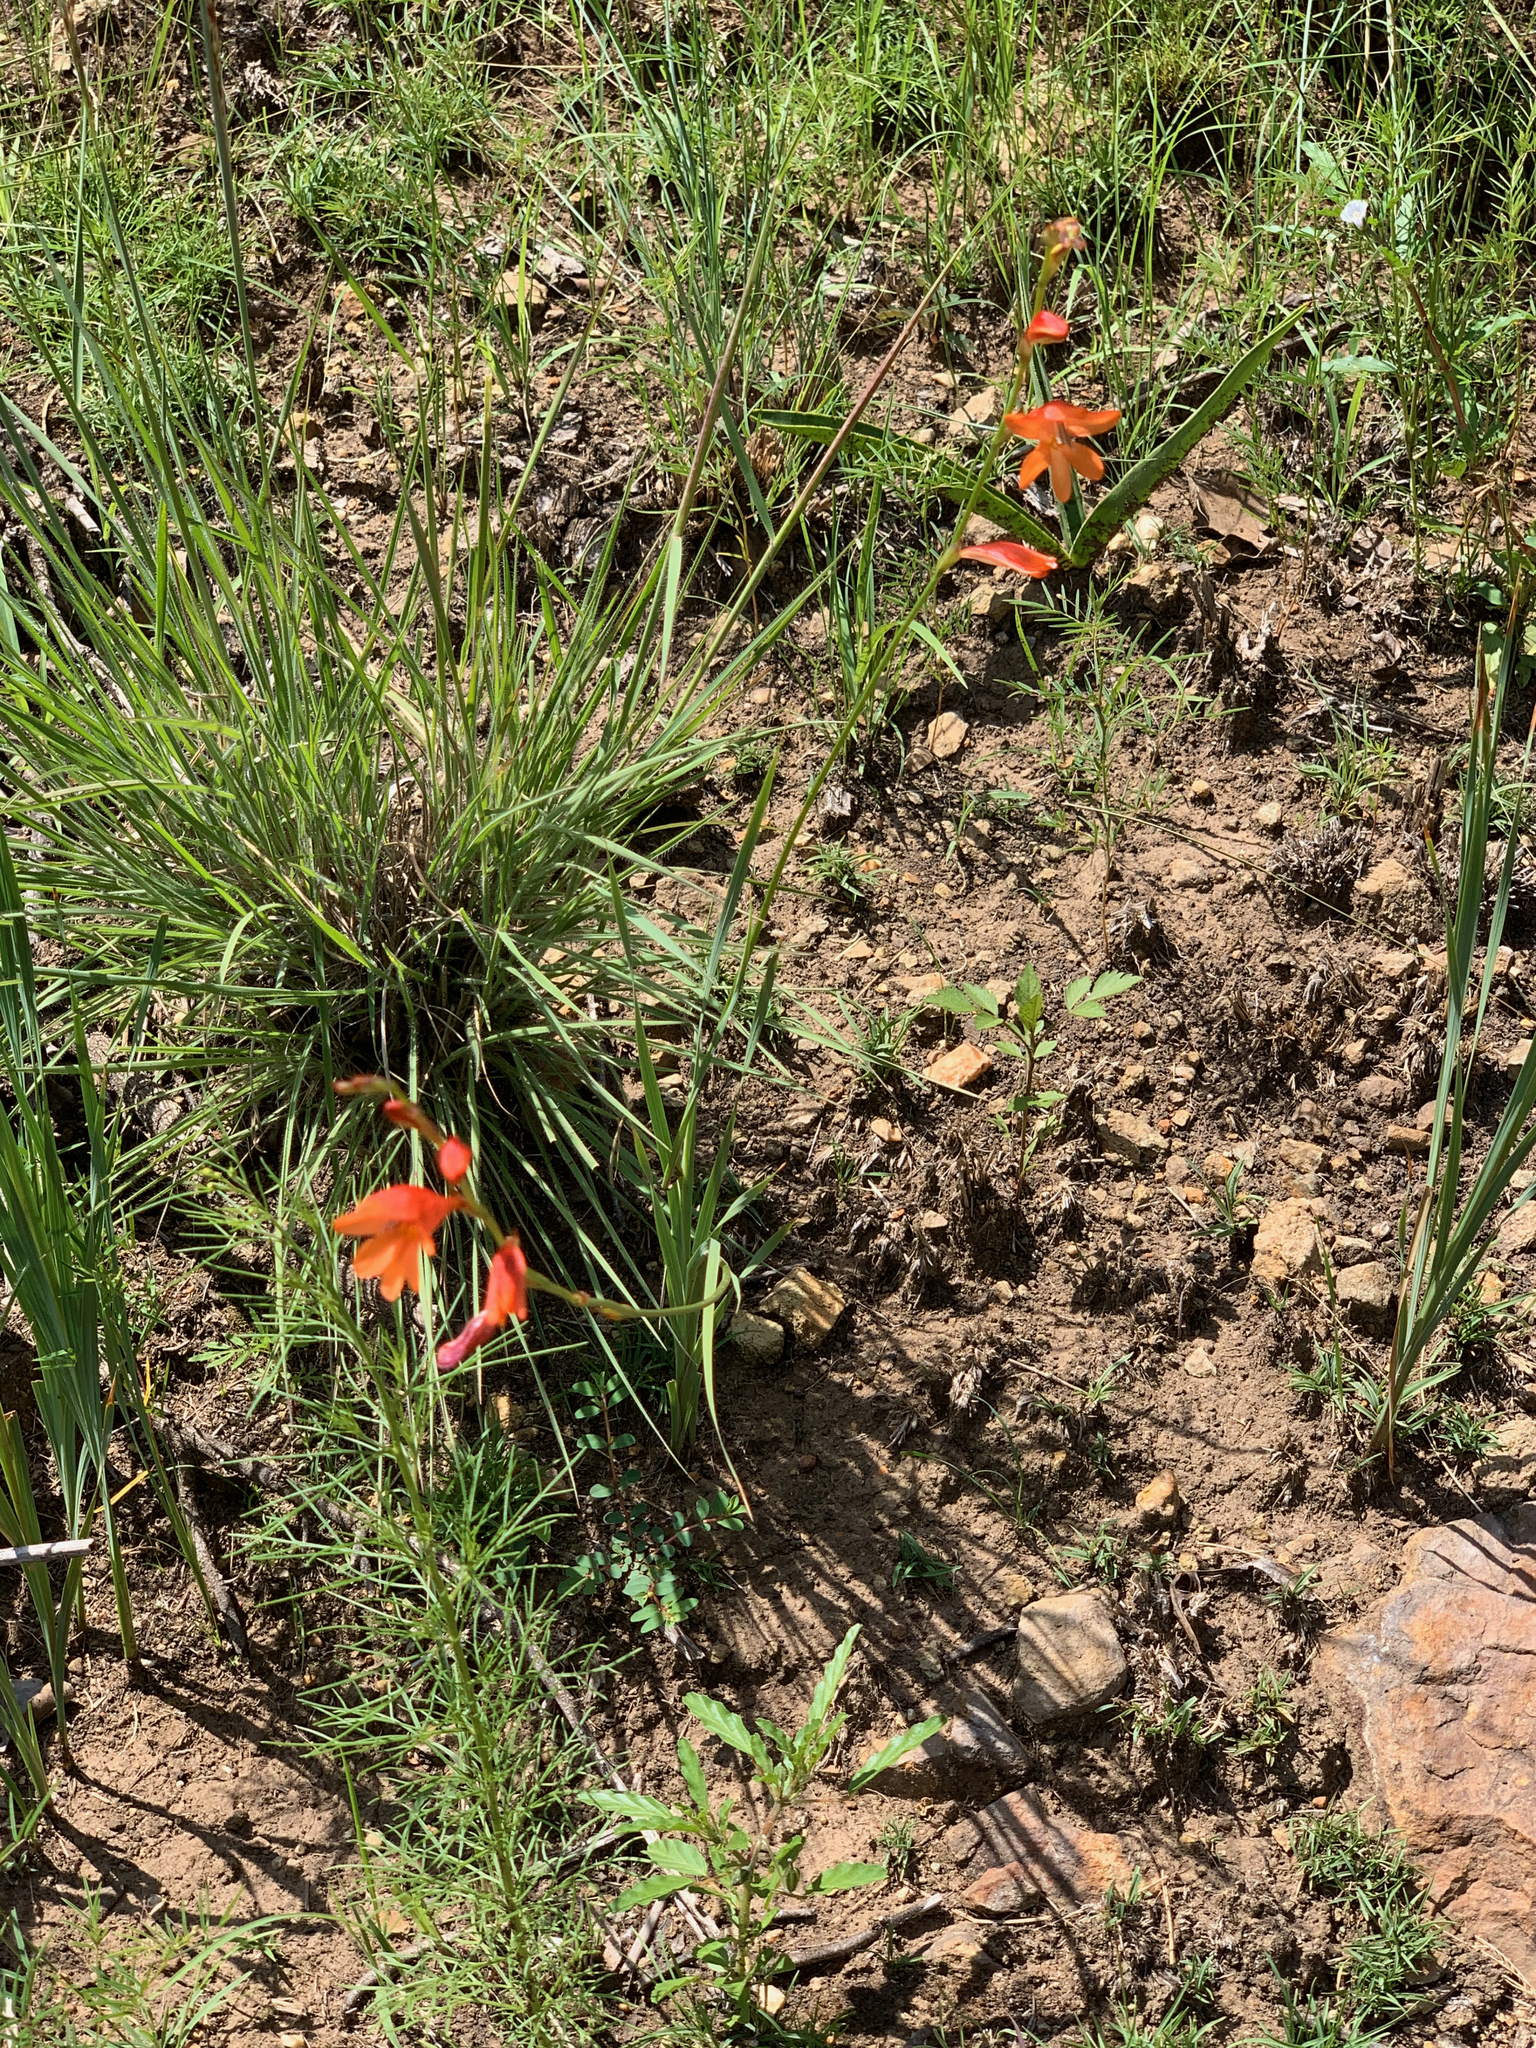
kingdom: Plantae
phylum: Tracheophyta
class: Liliopsida
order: Asparagales
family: Iridaceae
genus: Tritonia
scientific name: Tritonia nelsonii
